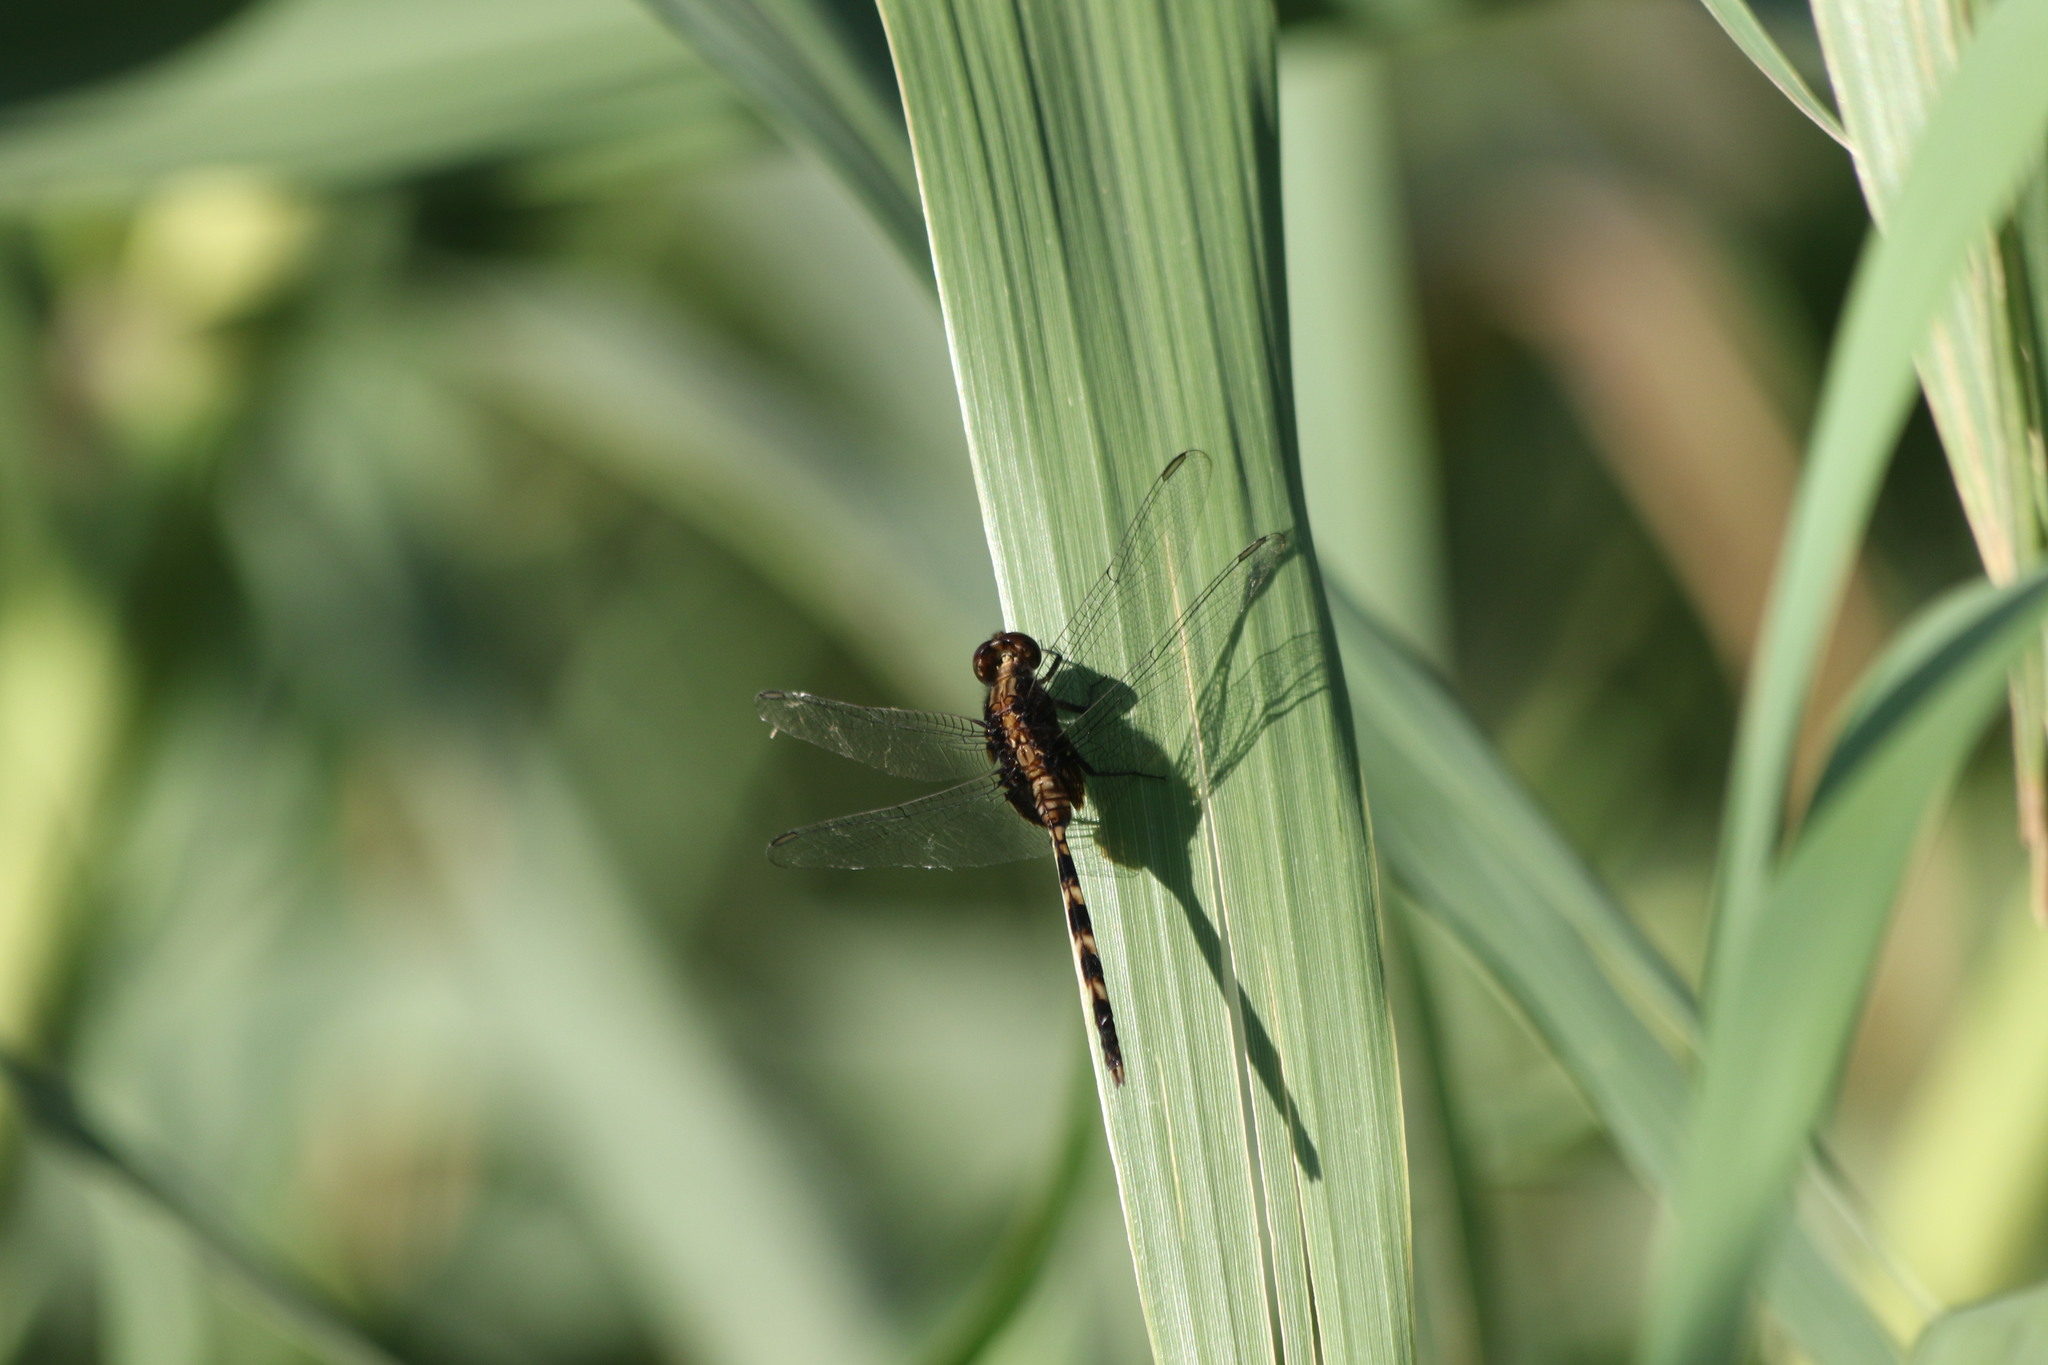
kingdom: Animalia
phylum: Arthropoda
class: Insecta
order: Odonata
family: Libellulidae
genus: Erythemis
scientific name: Erythemis plebeja
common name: Pin-tailed pondhawk
